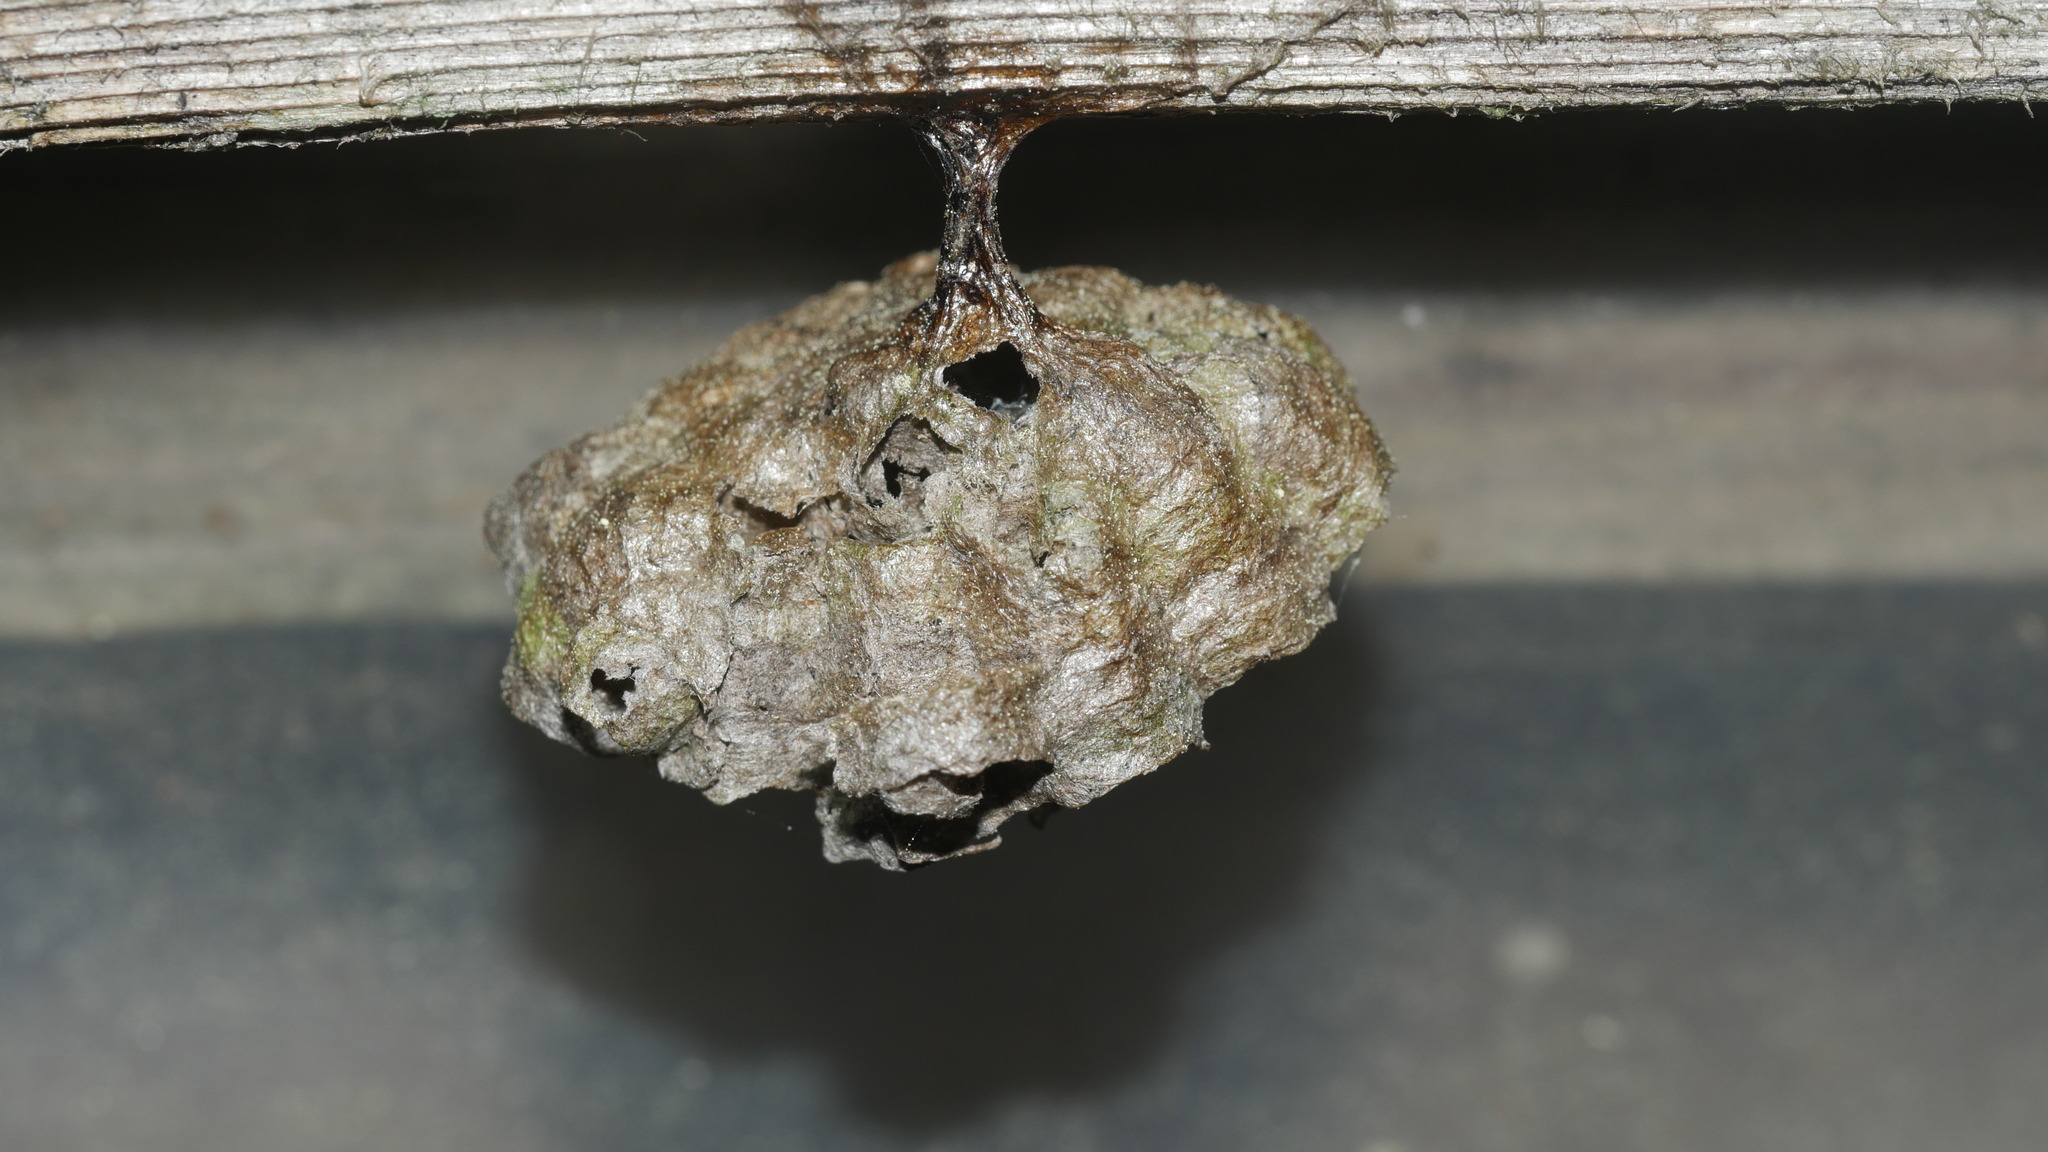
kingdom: Animalia
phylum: Arthropoda
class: Insecta
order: Hymenoptera
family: Eumenidae
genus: Polistes
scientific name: Polistes
